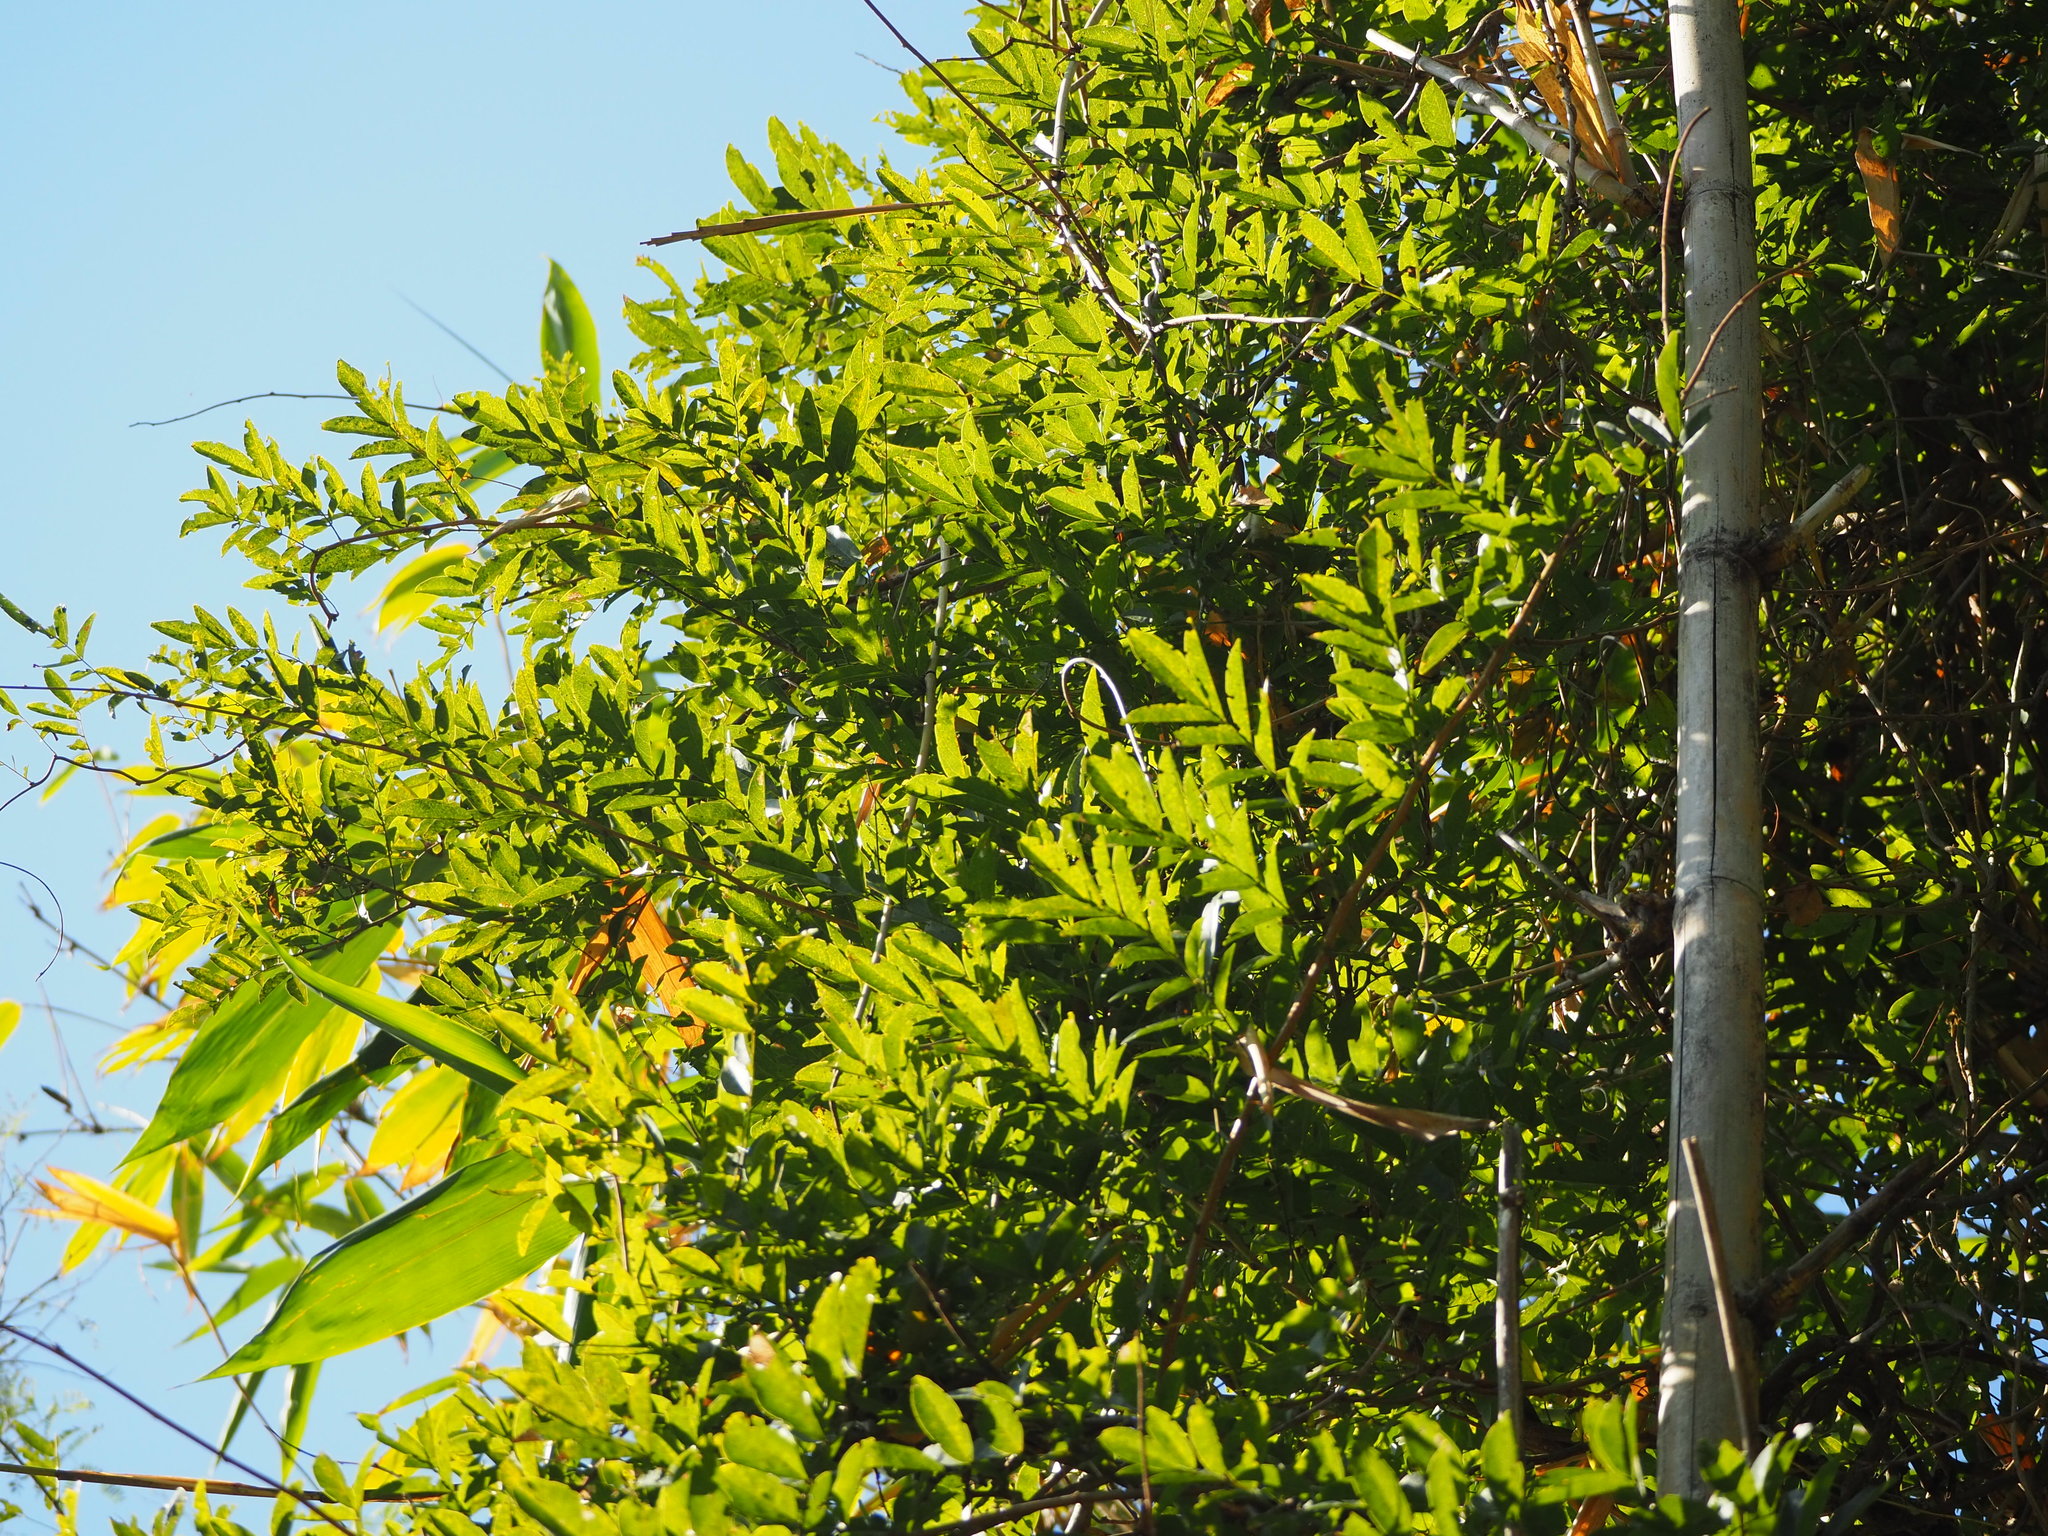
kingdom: Plantae
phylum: Tracheophyta
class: Magnoliopsida
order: Fabales
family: Fabaceae
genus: Wisteriopsis
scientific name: Wisteriopsis reticulata
